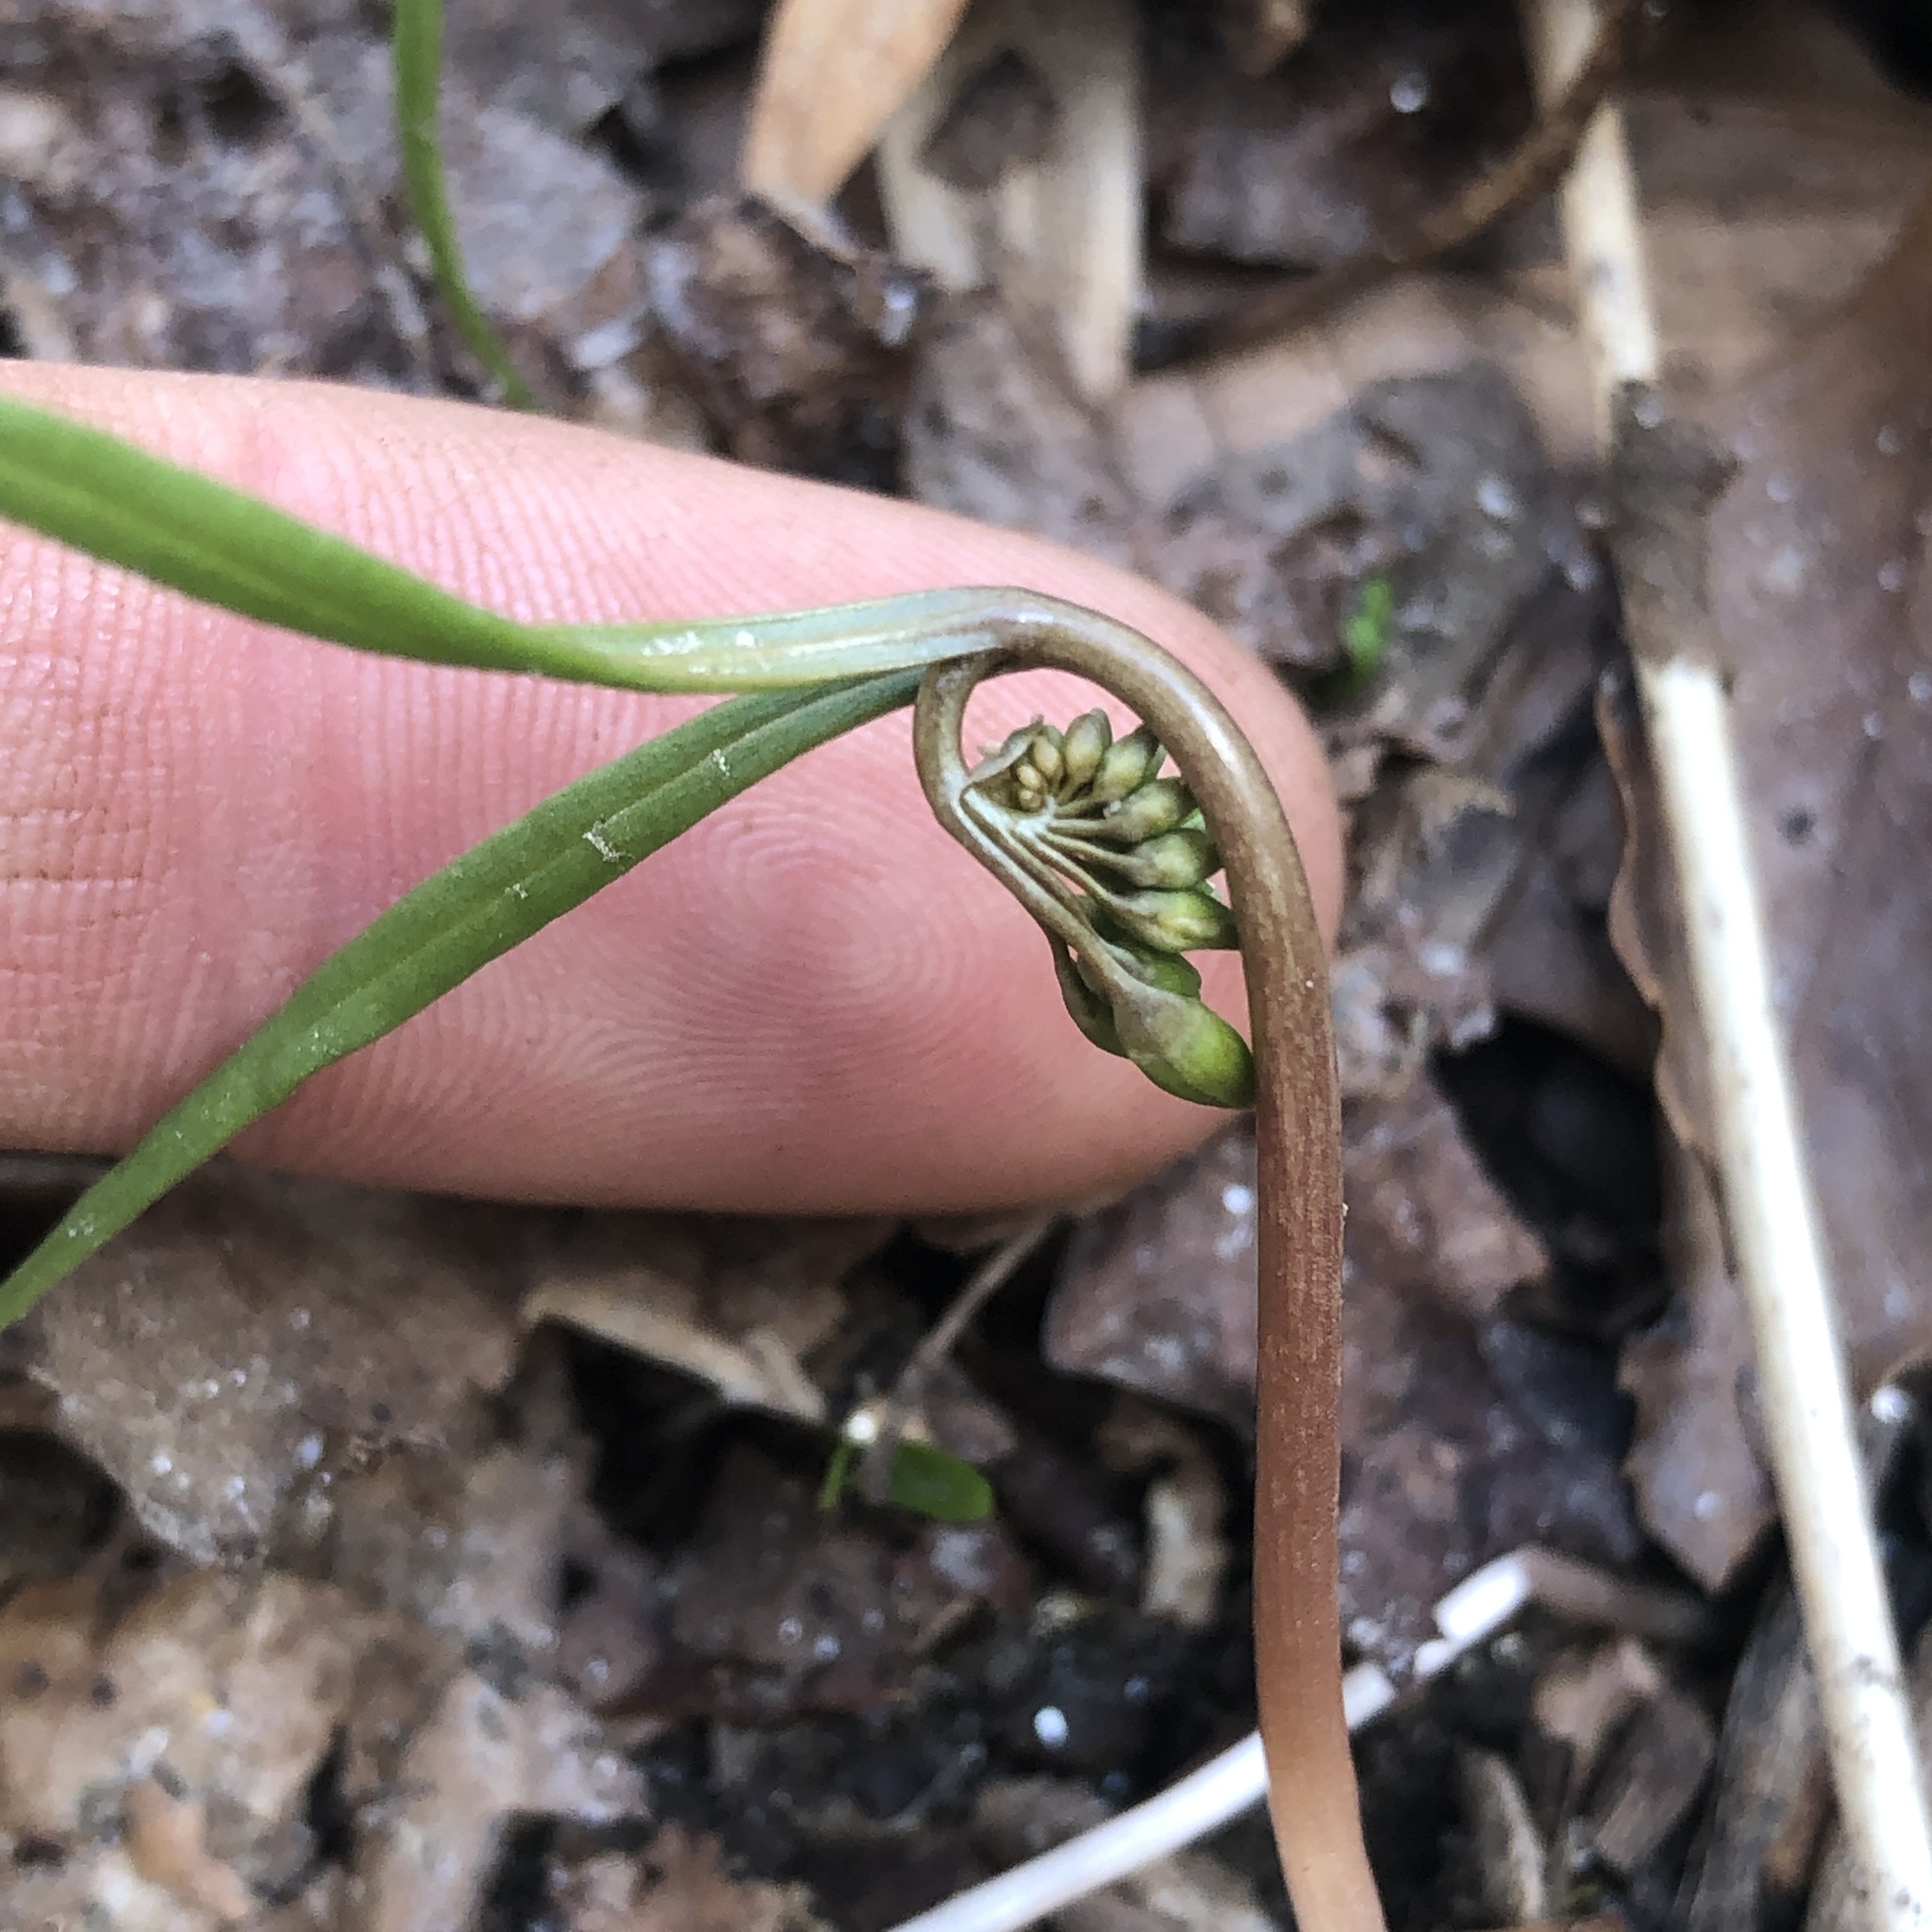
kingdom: Plantae
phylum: Tracheophyta
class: Magnoliopsida
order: Caryophyllales
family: Montiaceae
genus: Claytonia
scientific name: Claytonia virginica
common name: Virginia springbeauty
